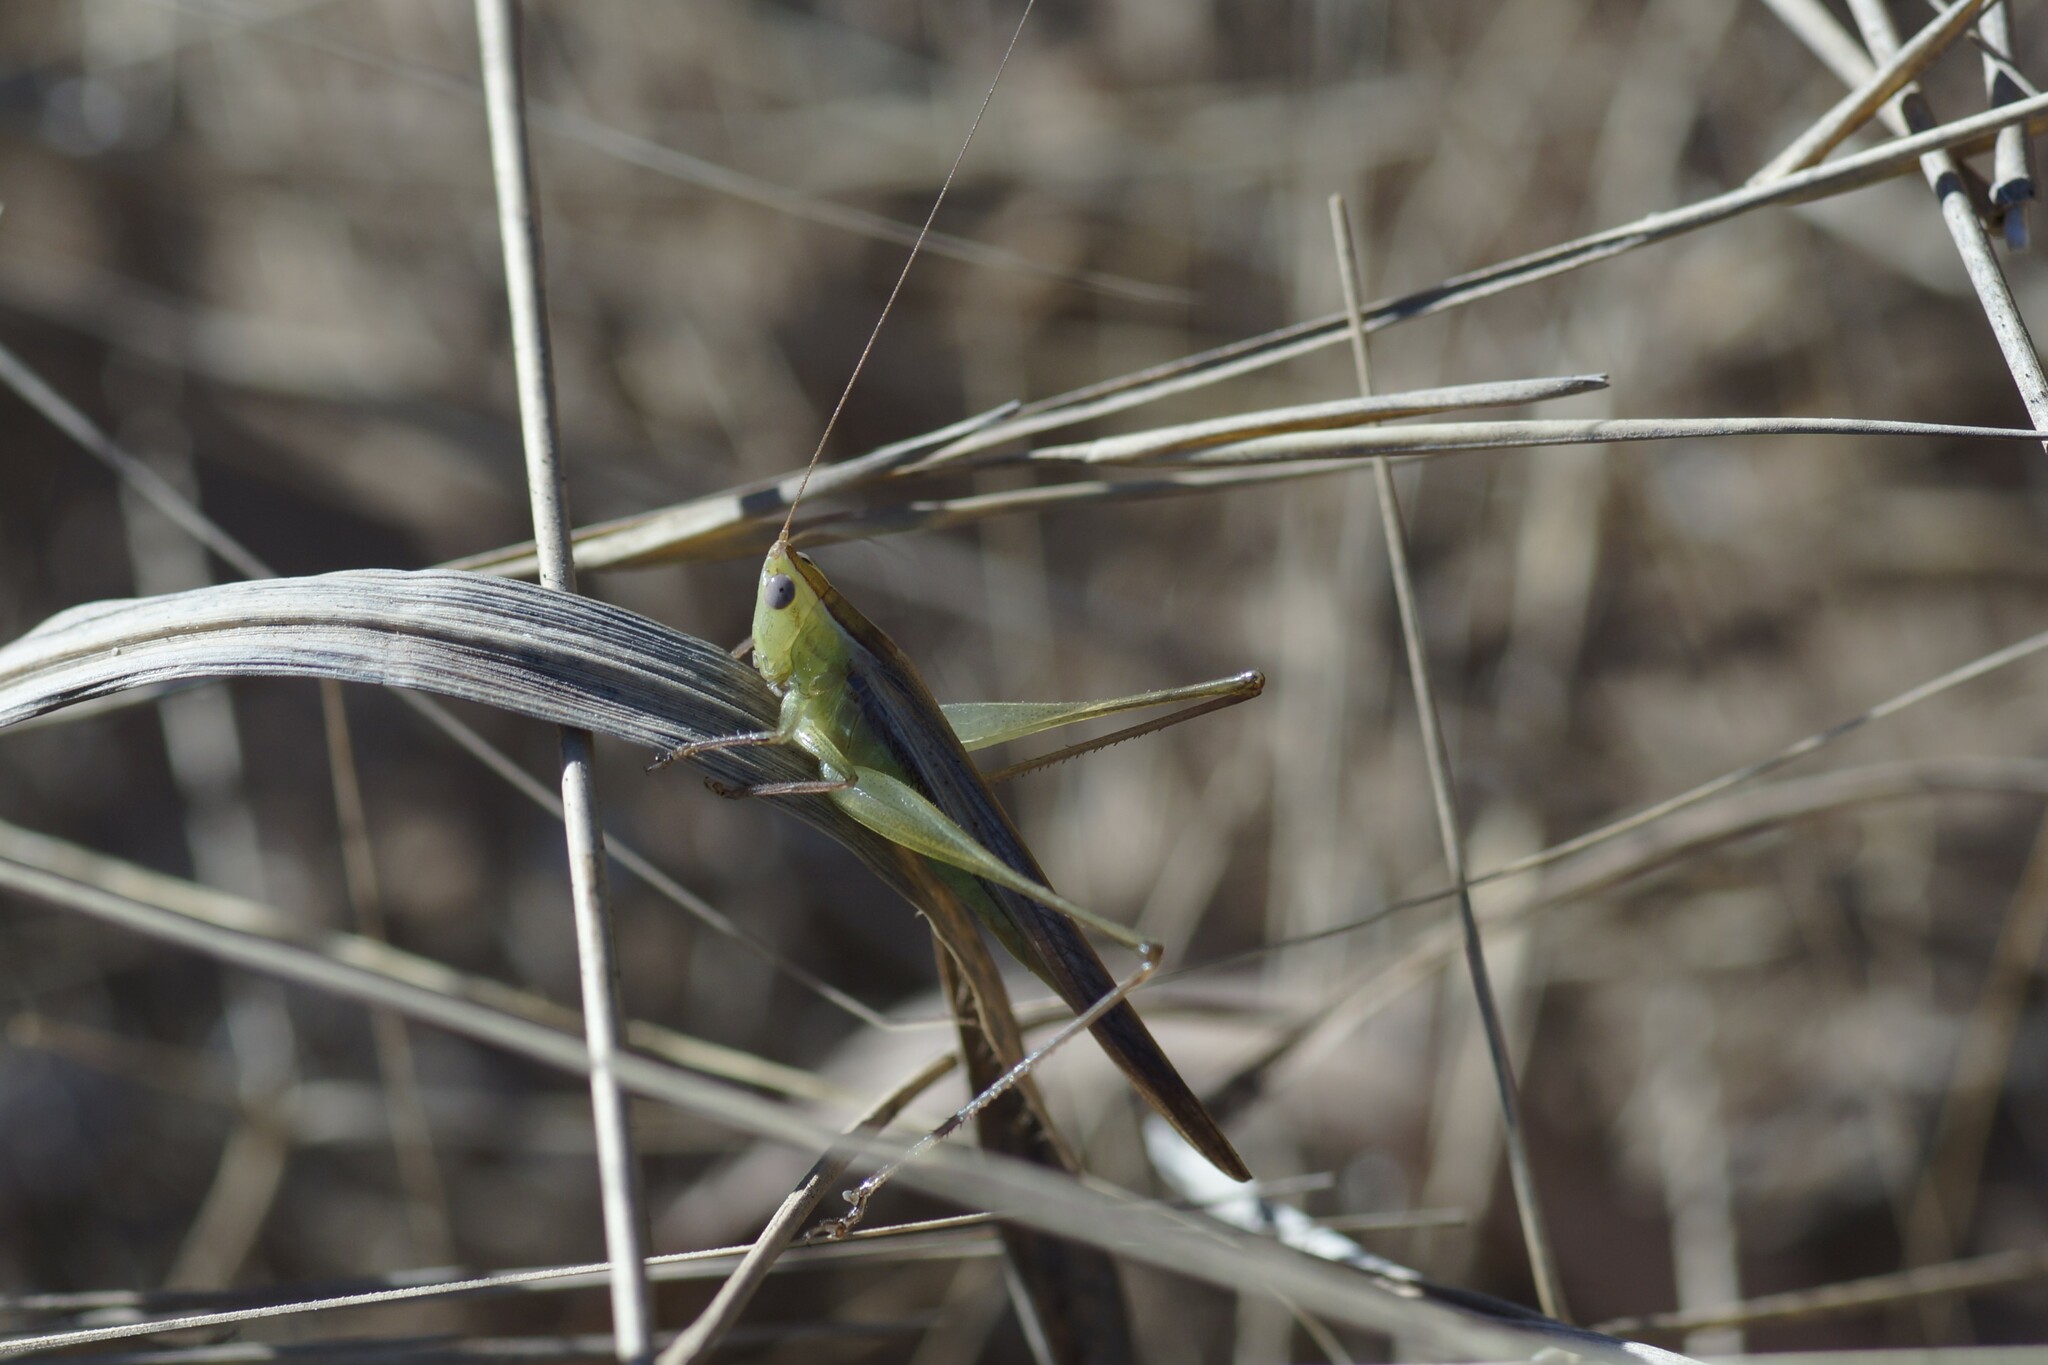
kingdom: Animalia
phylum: Arthropoda
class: Insecta
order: Orthoptera
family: Tettigoniidae
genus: Conocephalus
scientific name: Conocephalus upoluensis
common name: Upolu meadow katydid
